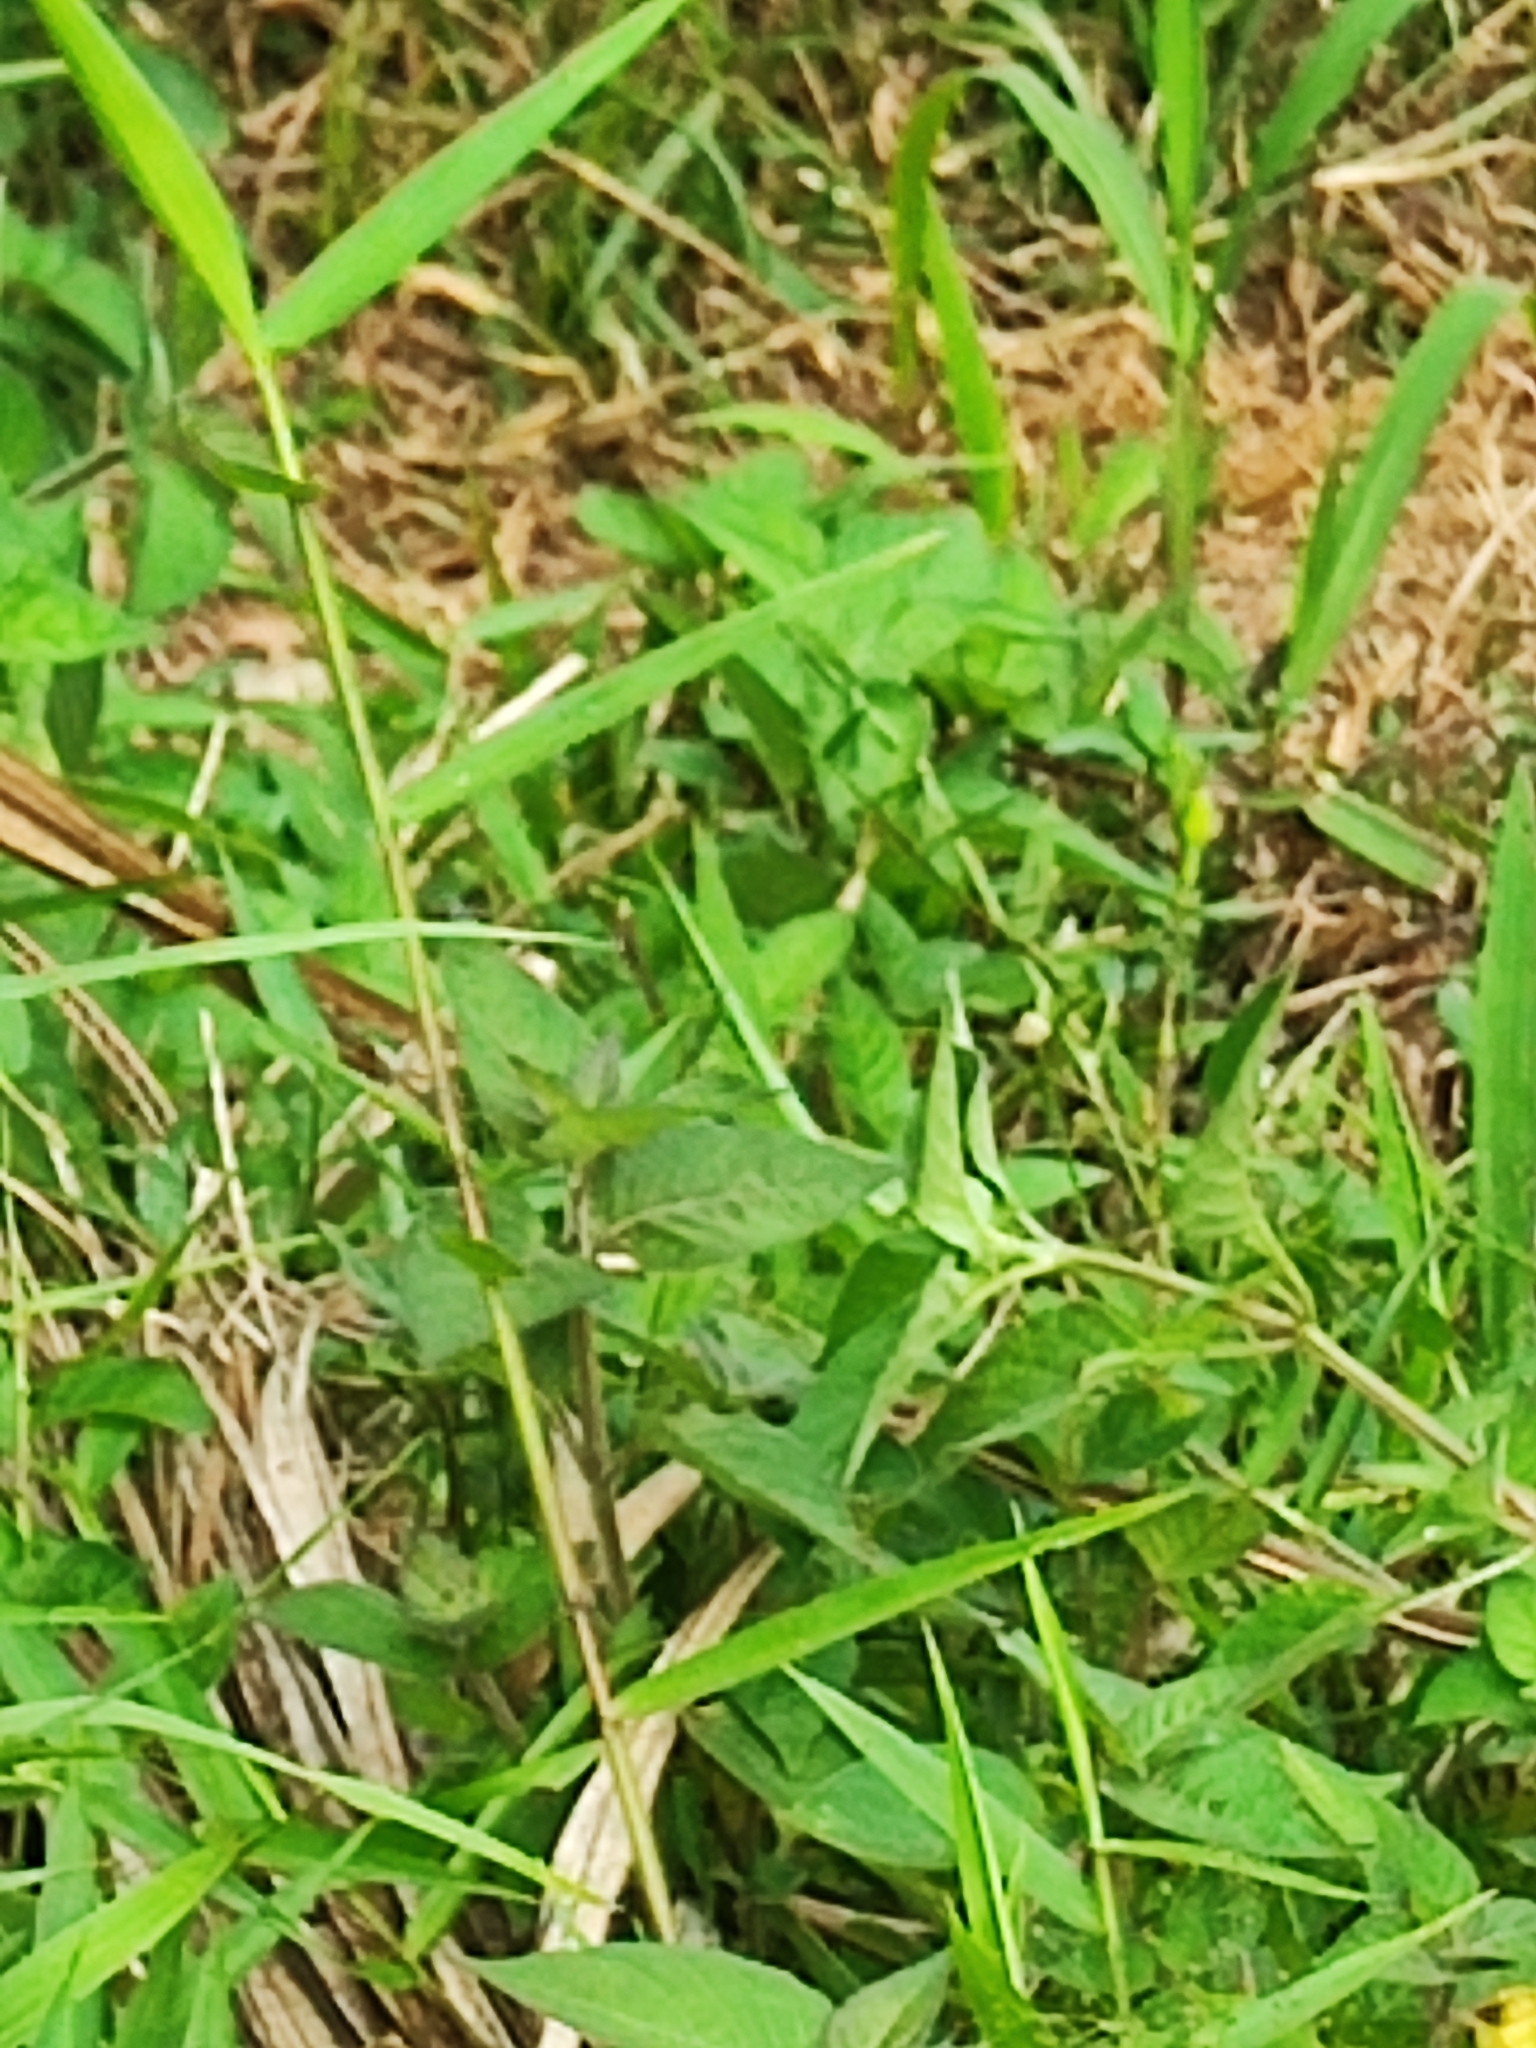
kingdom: Animalia
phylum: Chordata
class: Squamata
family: Colubridae
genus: Dendrelaphis
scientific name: Dendrelaphis pictus
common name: Indonesian bronze-back
